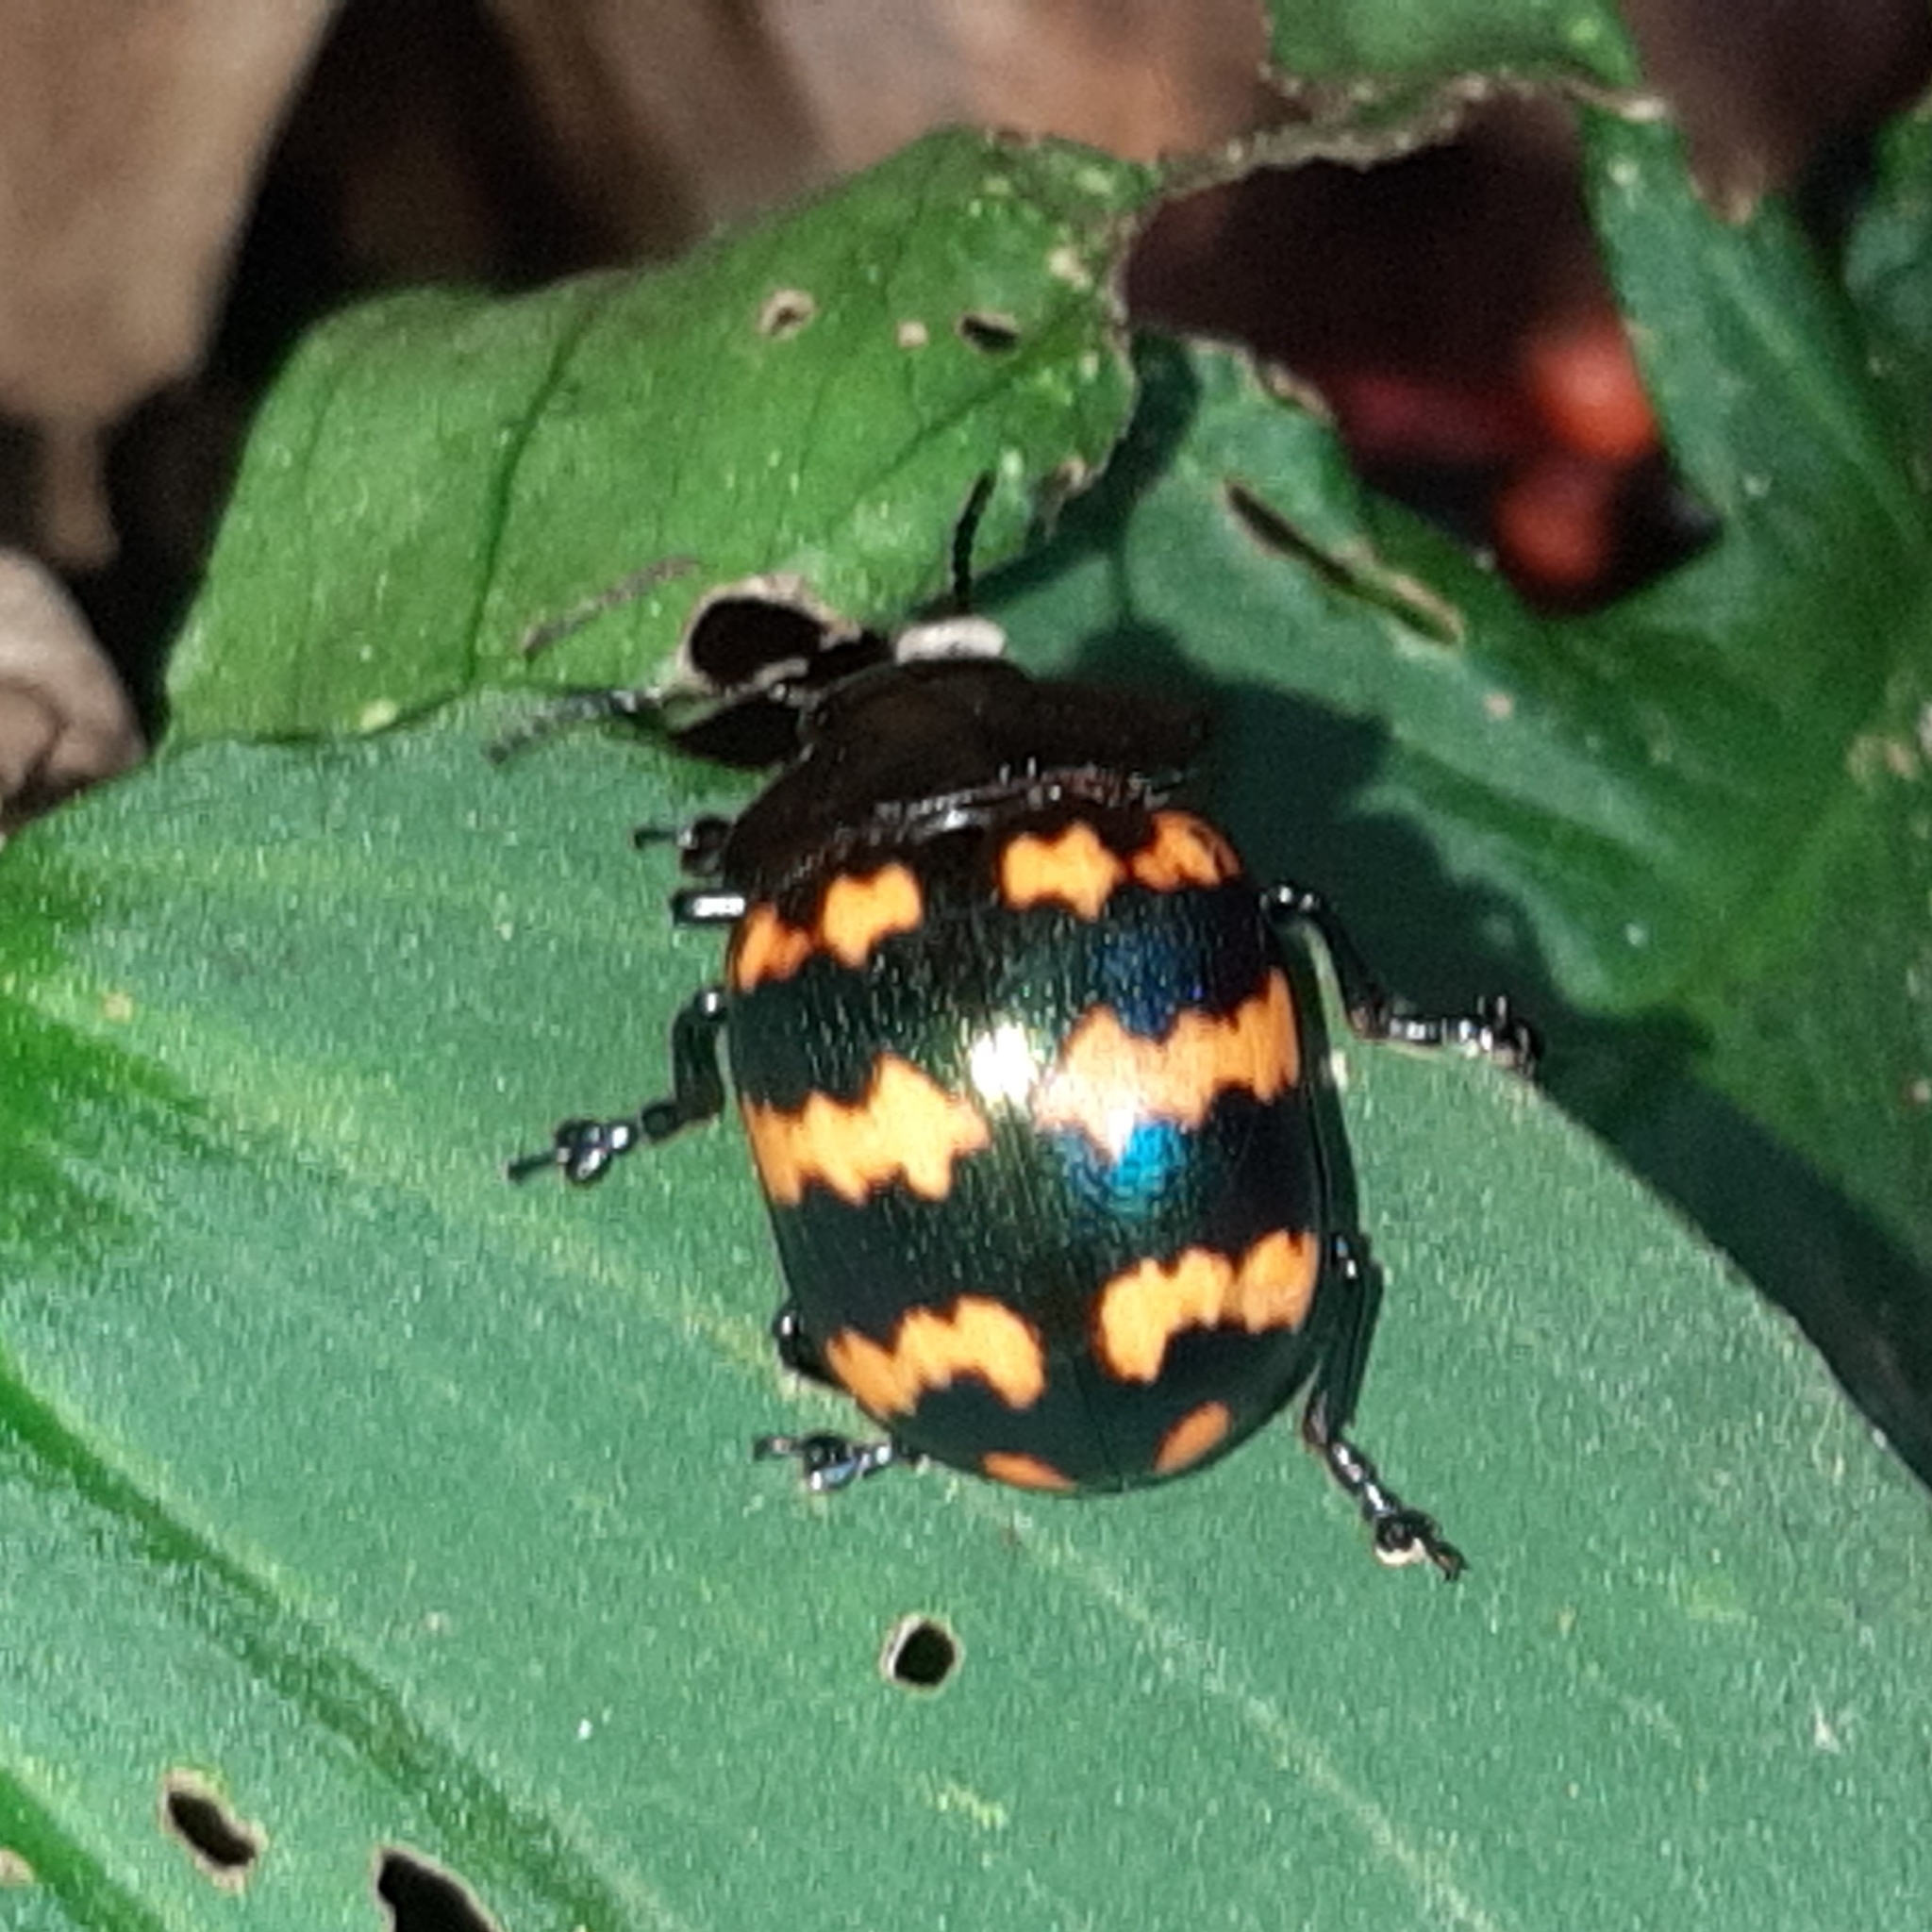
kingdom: Animalia
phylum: Arthropoda
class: Insecta
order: Coleoptera
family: Chrysomelidae
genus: Platyphora
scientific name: Platyphora
